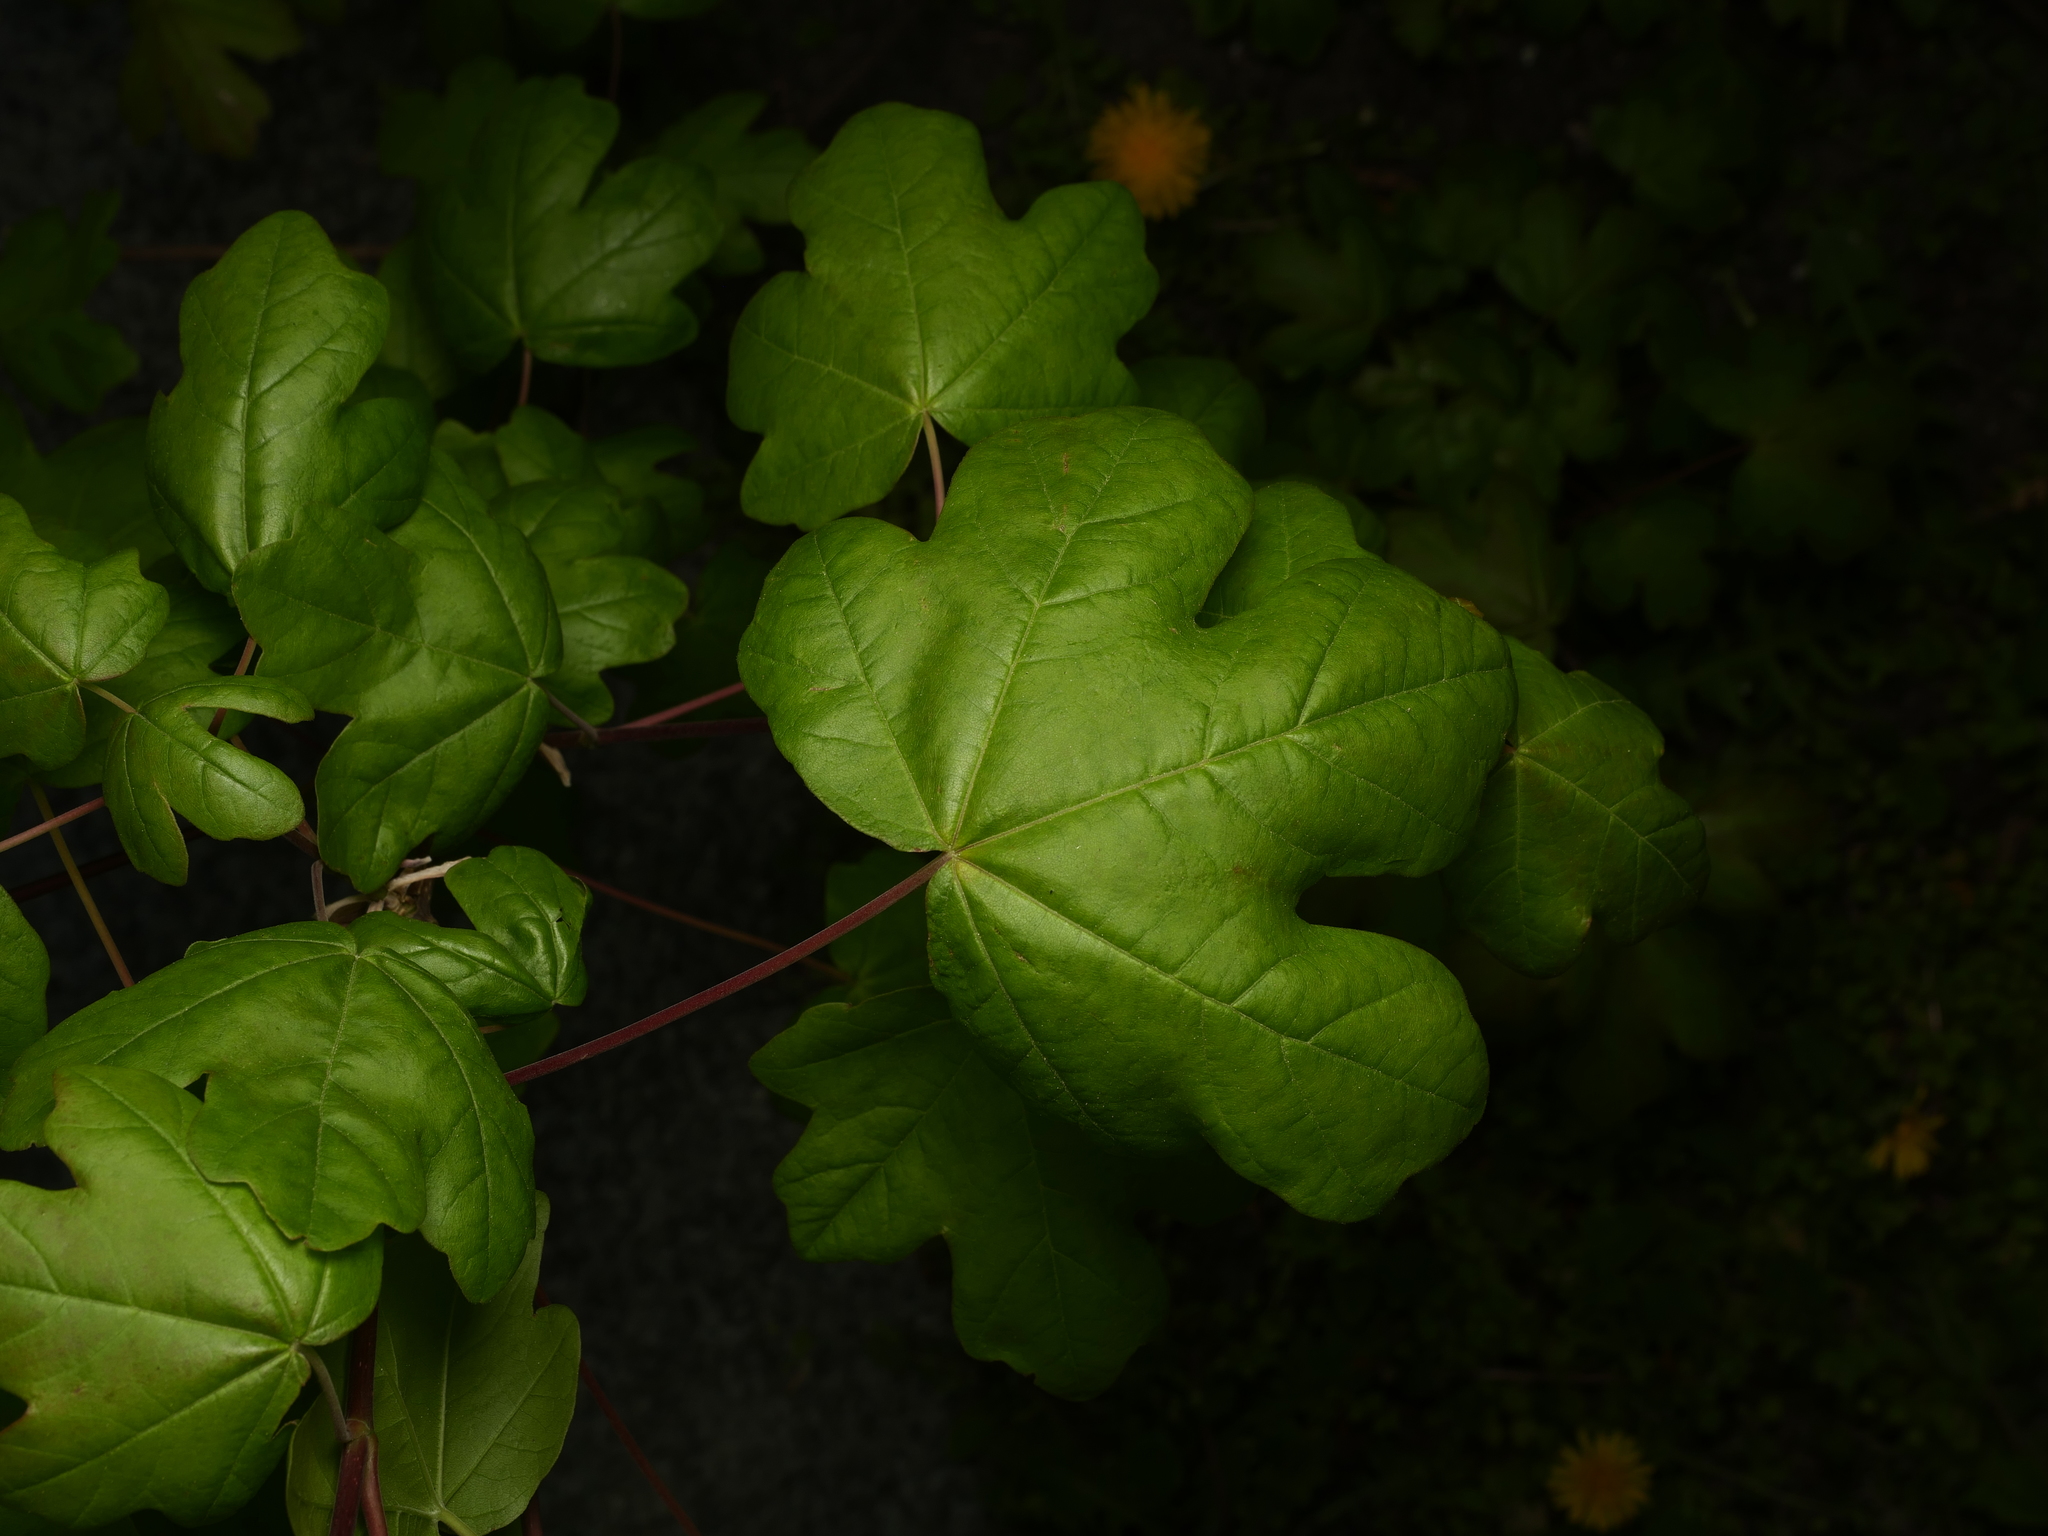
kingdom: Plantae
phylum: Tracheophyta
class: Magnoliopsida
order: Sapindales
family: Sapindaceae
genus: Acer
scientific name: Acer campestre
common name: Field maple
